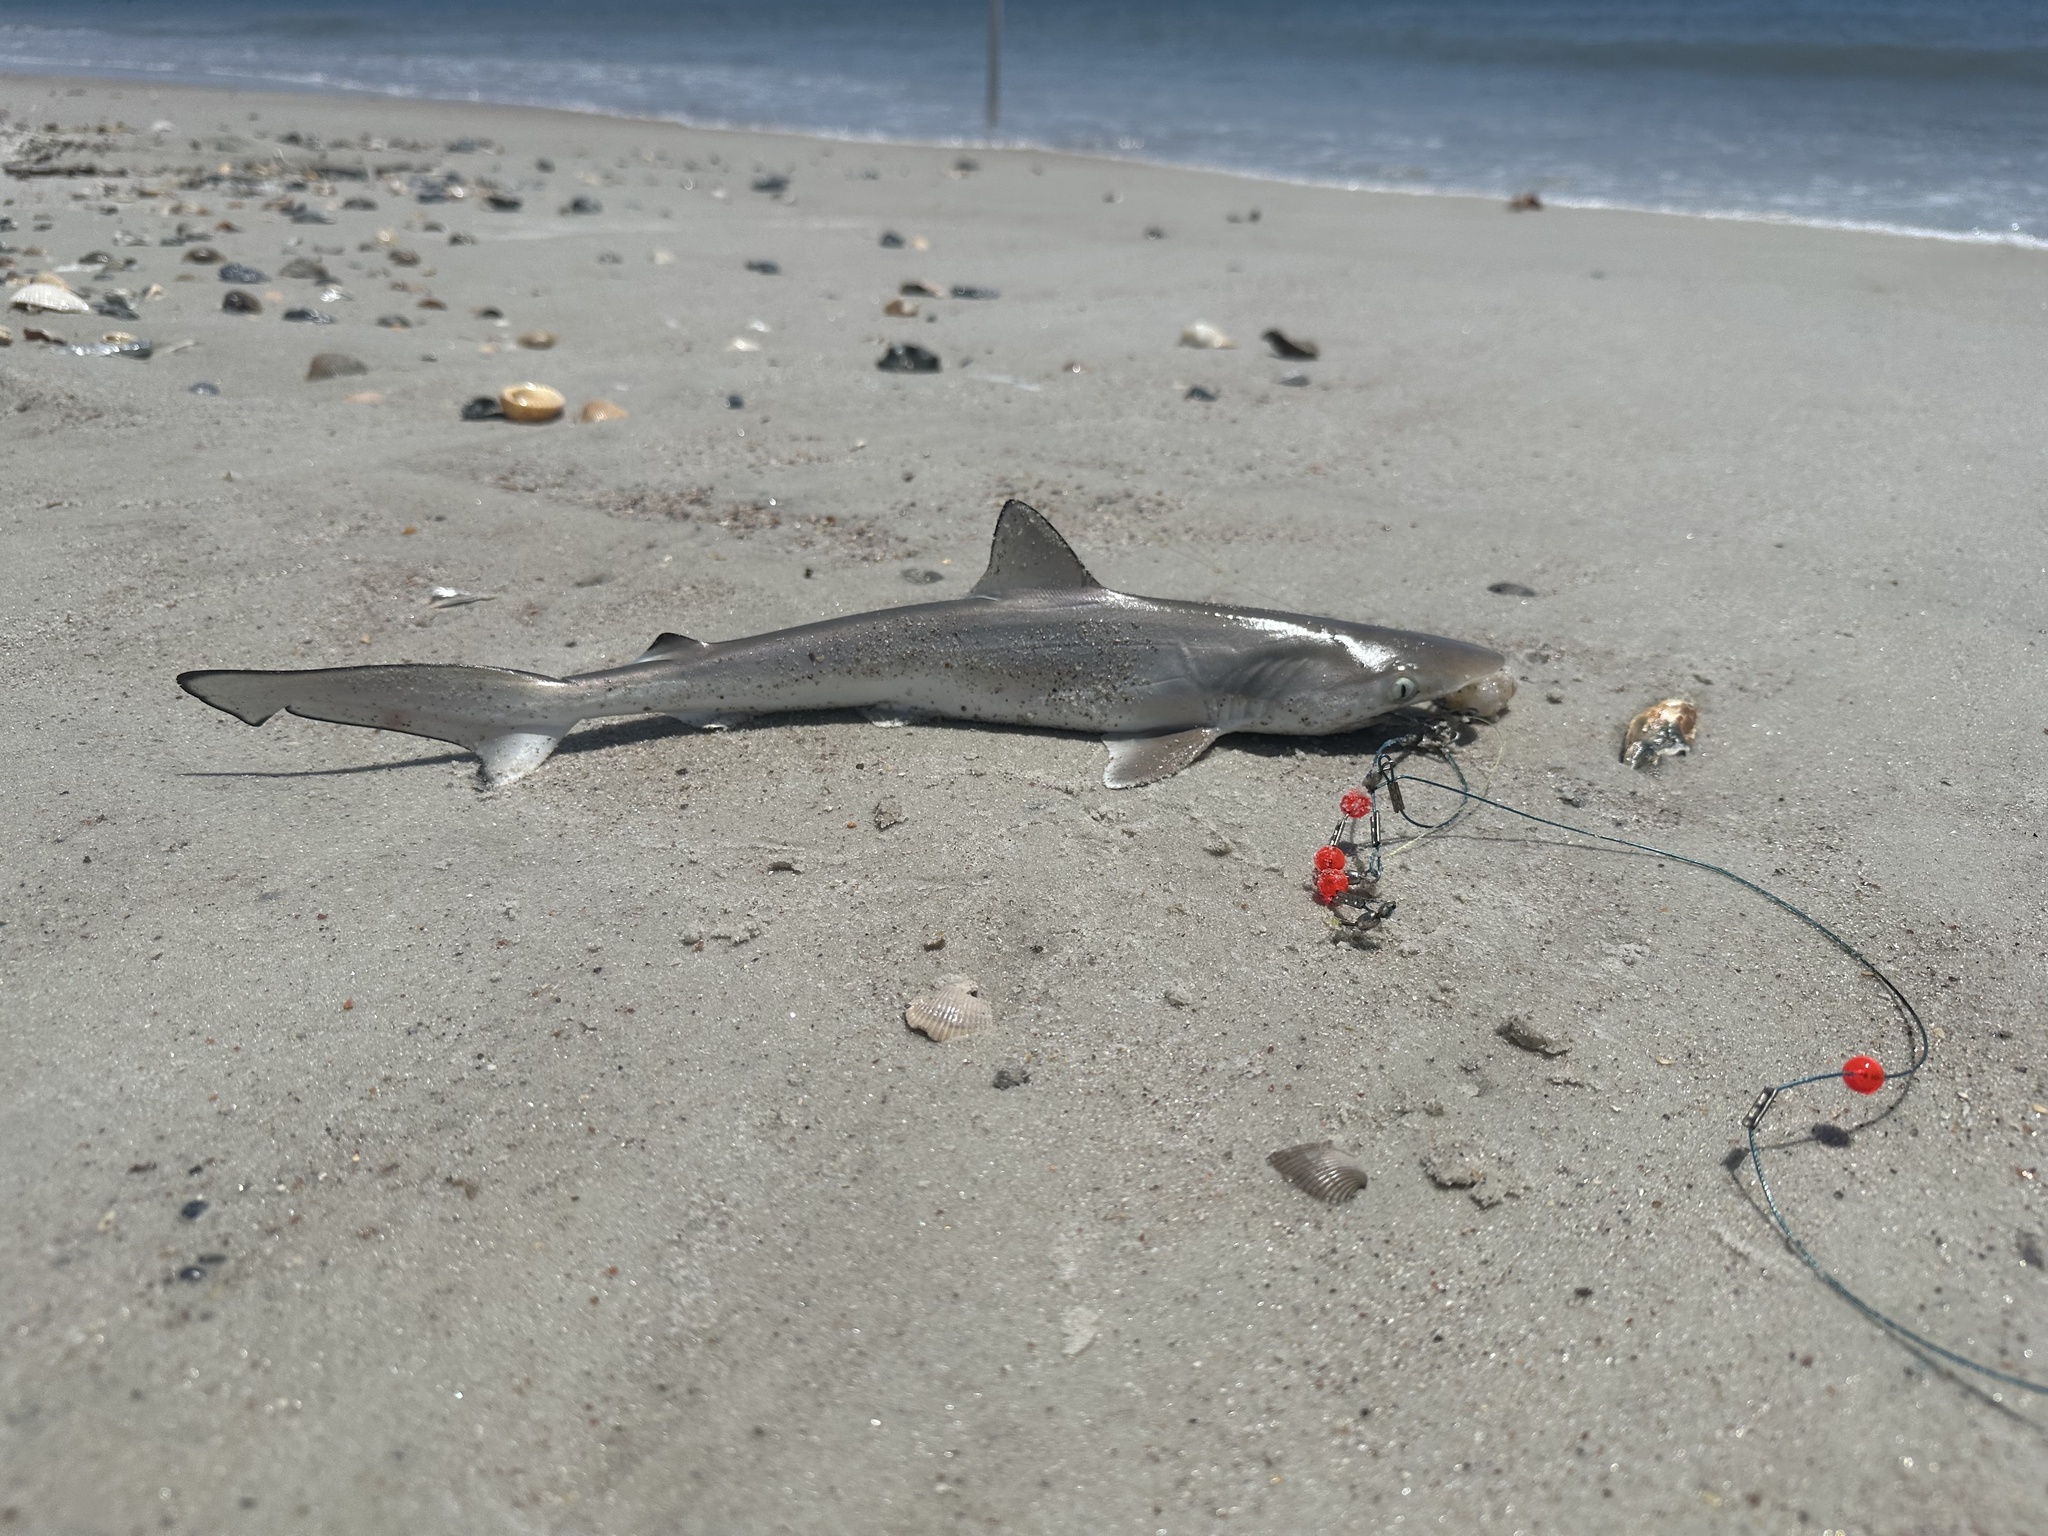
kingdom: Animalia
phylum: Chordata
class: Elasmobranchii
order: Carcharhiniformes
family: Carcharhinidae
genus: Rhizoprionodon
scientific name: Rhizoprionodon terraenovae
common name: Atlantic sharpnose shark
